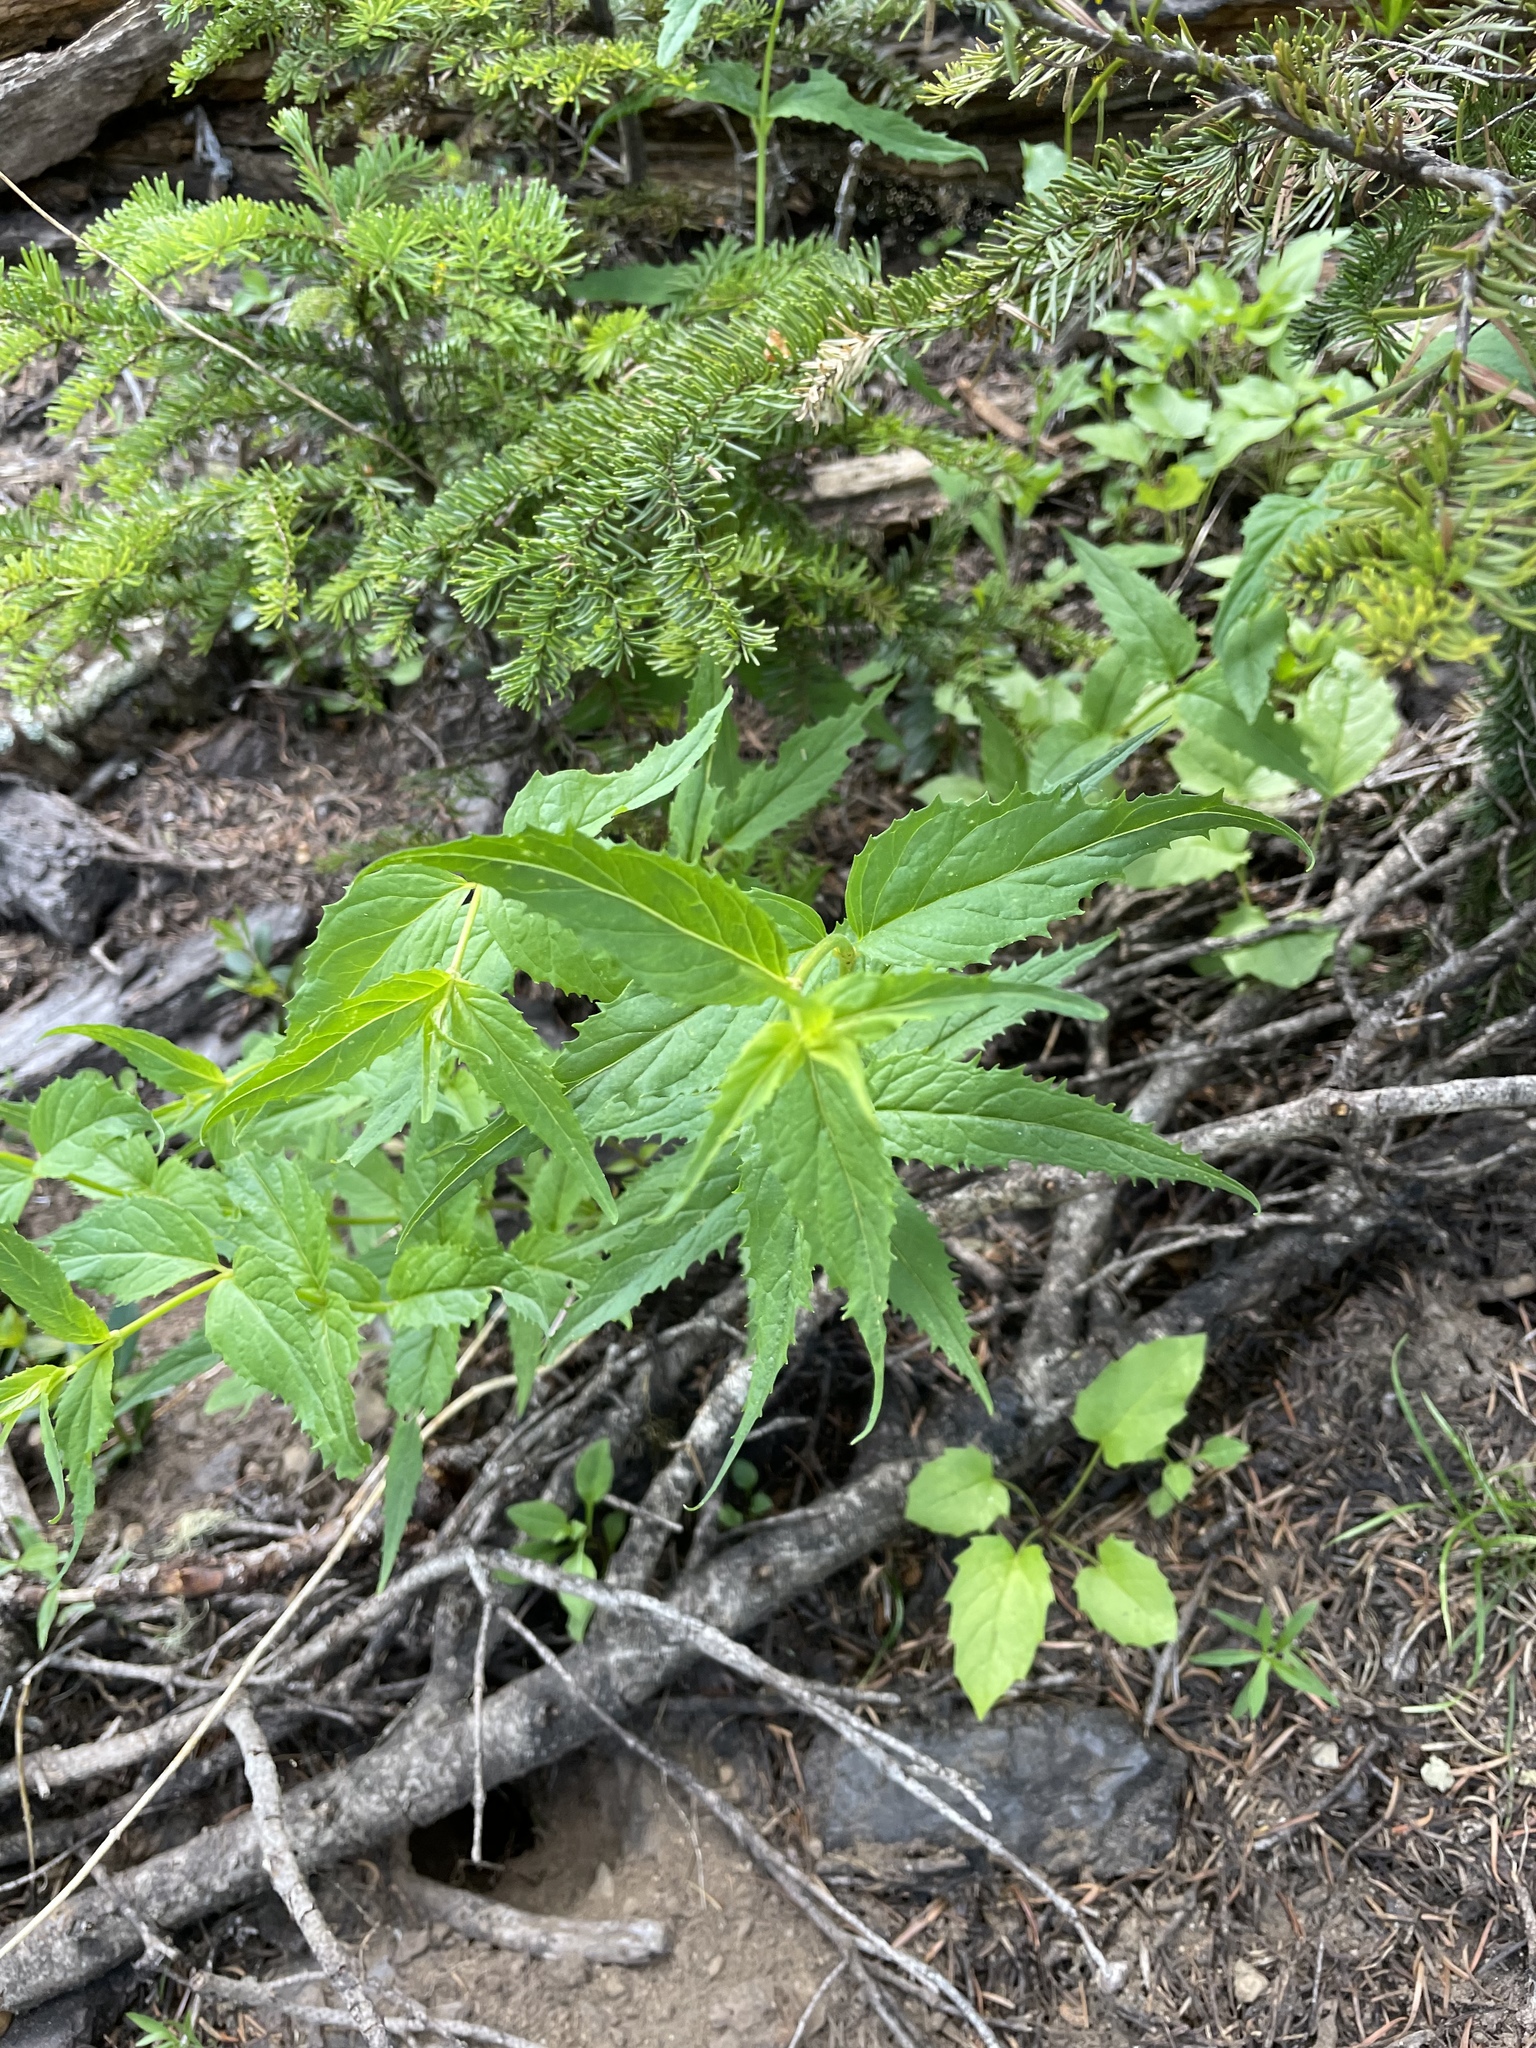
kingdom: Plantae
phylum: Tracheophyta
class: Magnoliopsida
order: Lamiales
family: Plantaginaceae
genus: Nothochelone
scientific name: Nothochelone nemorosa
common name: Woodland beardtongue
